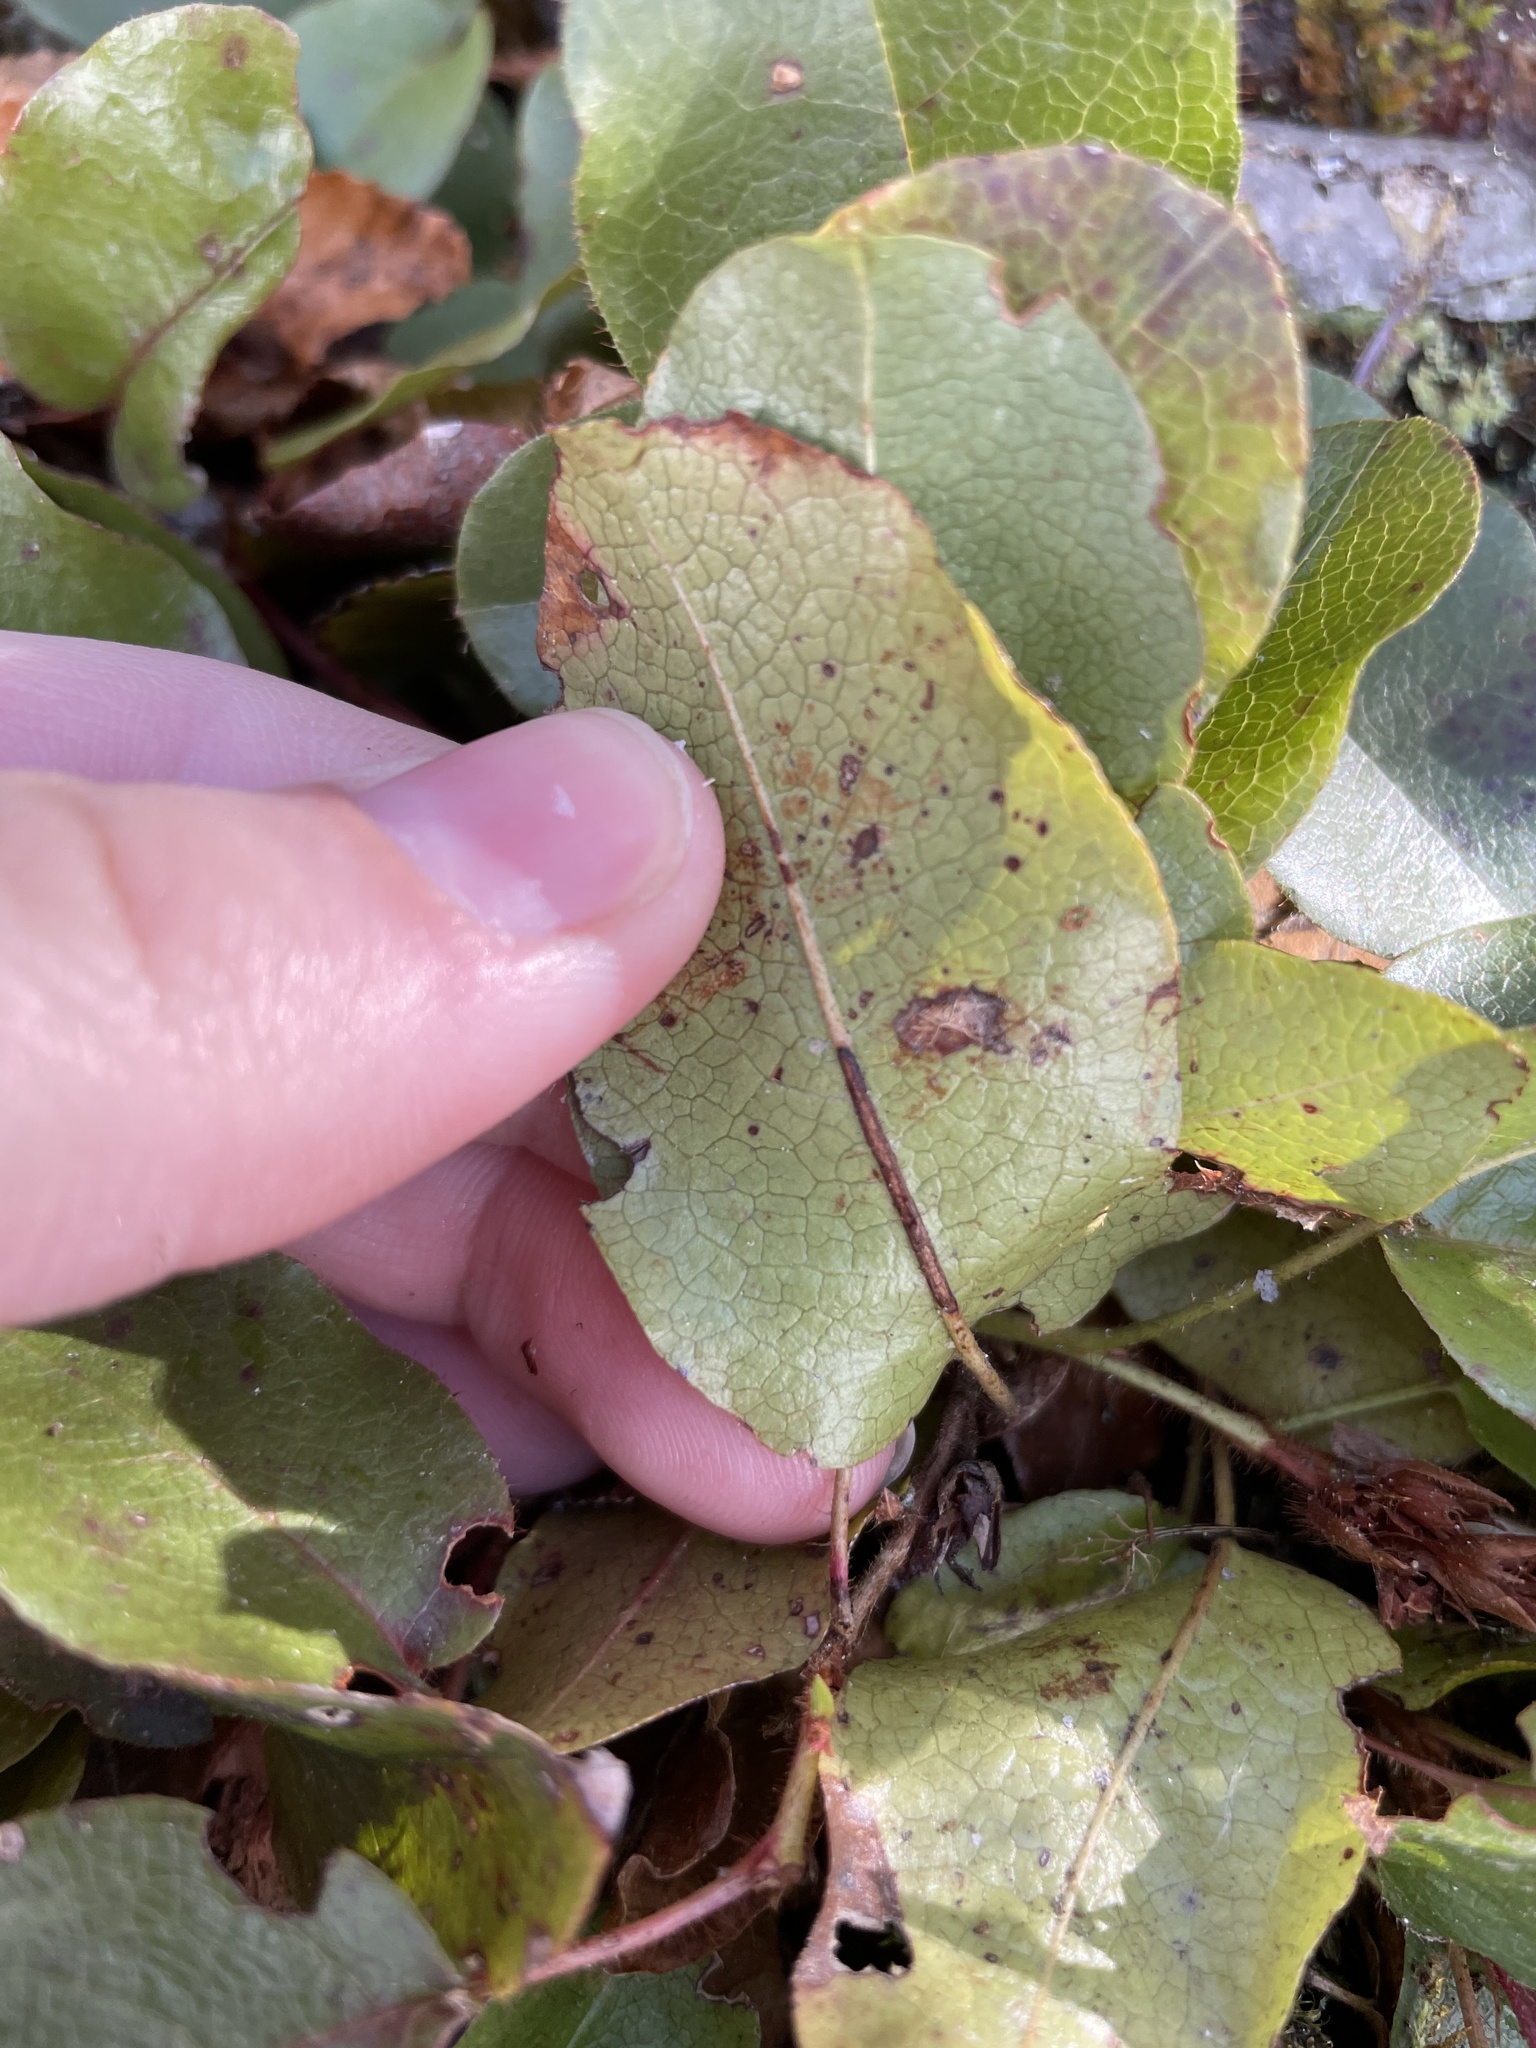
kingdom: Plantae
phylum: Tracheophyta
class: Magnoliopsida
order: Ericales
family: Ericaceae
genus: Epigaea
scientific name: Epigaea repens
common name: Gravelroot
